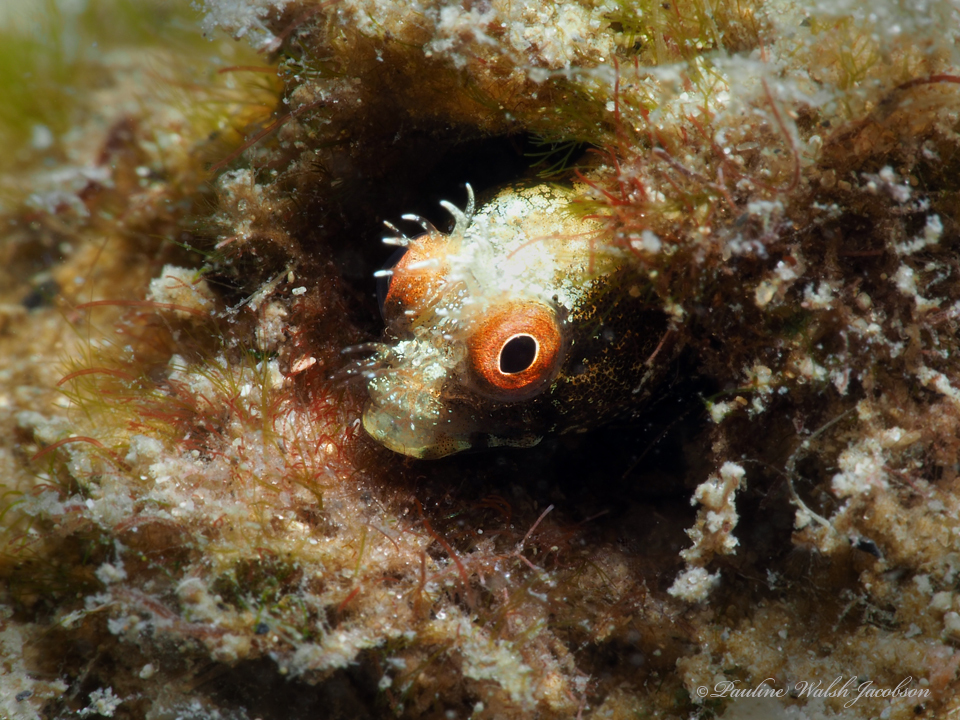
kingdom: Animalia
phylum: Chordata
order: Perciformes
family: Chaenopsidae
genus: Acanthemblemaria
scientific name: Acanthemblemaria aspera
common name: Roughhead blenny
